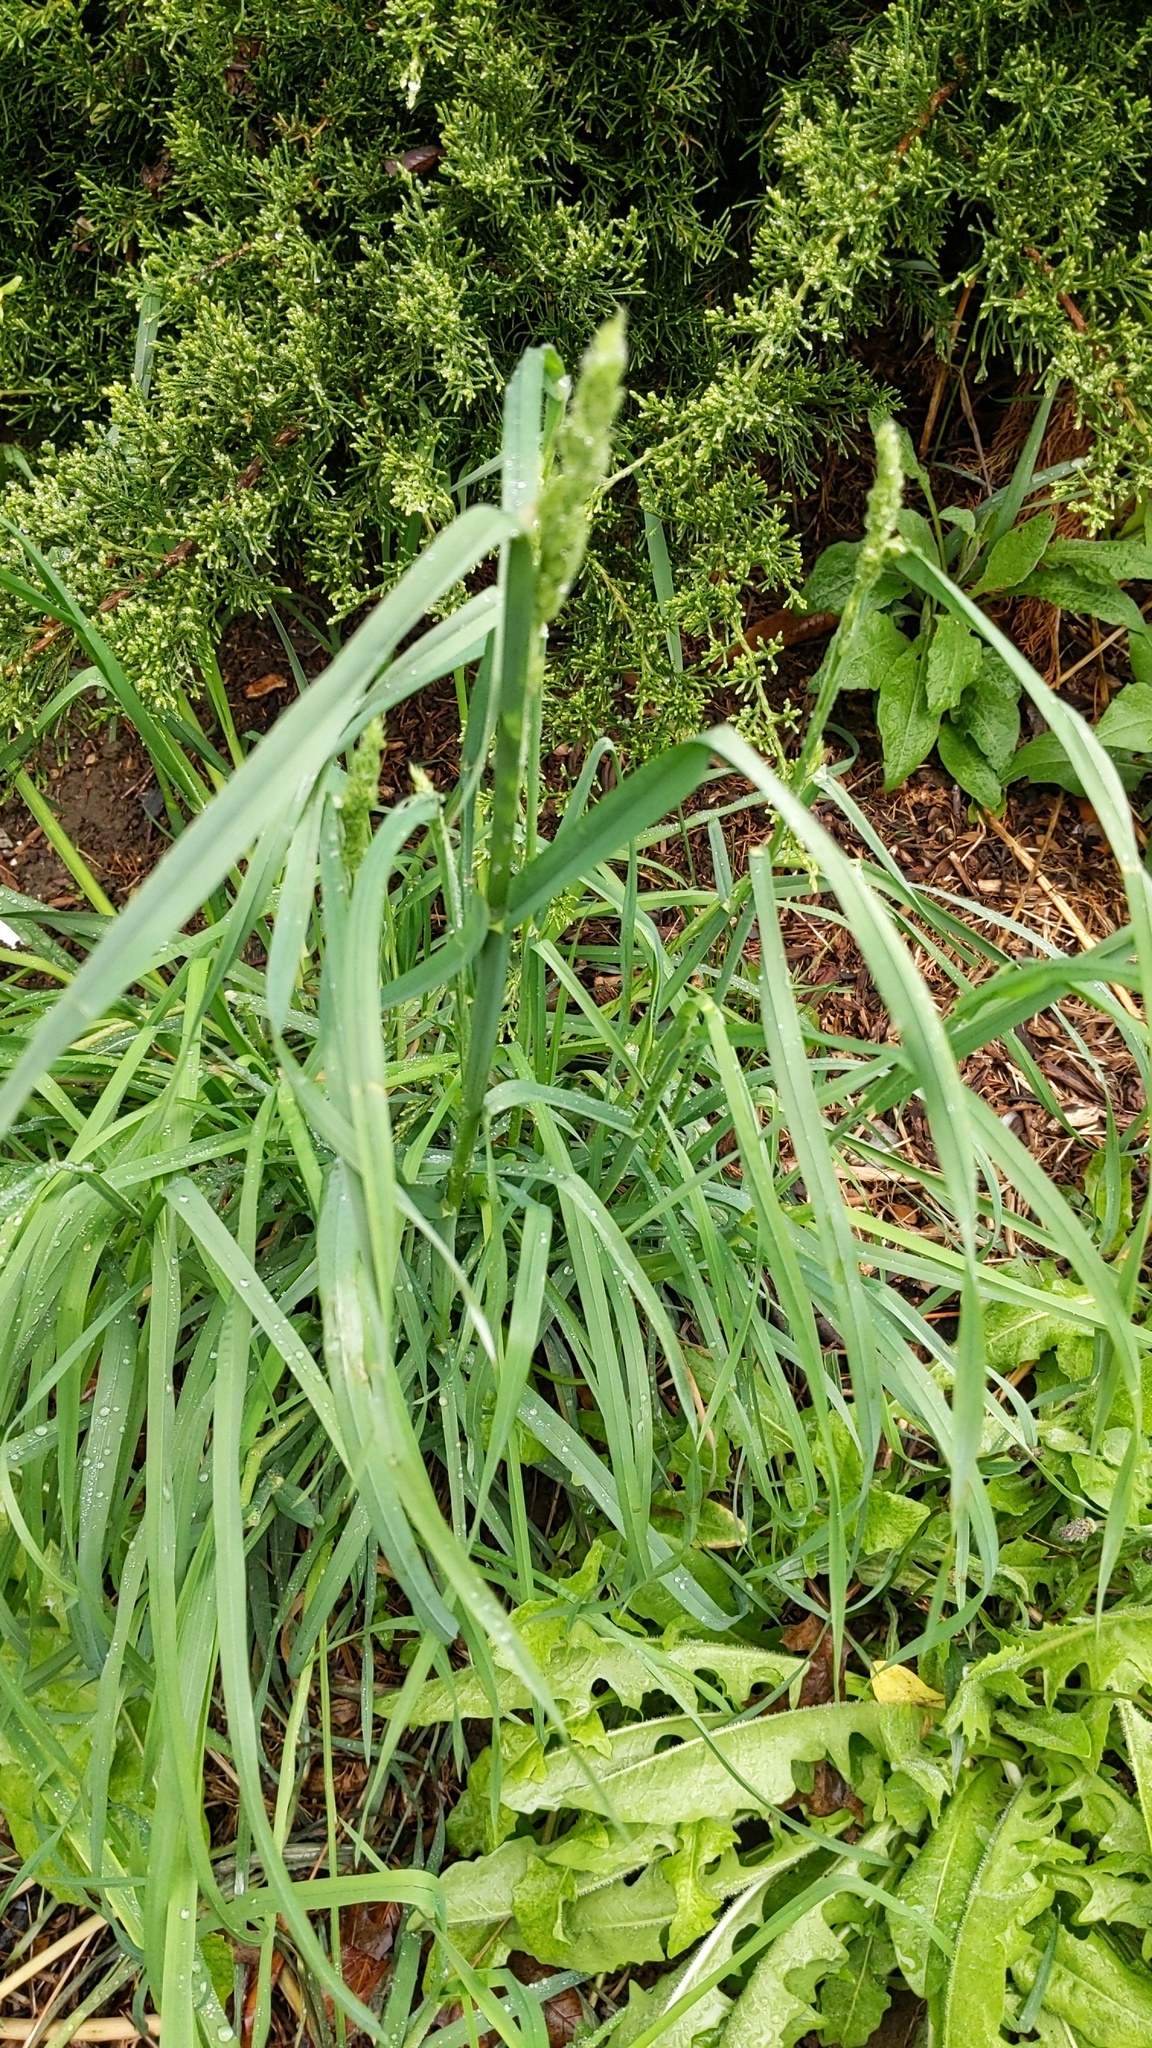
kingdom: Plantae
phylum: Tracheophyta
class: Liliopsida
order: Poales
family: Poaceae
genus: Dactylis
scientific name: Dactylis glomerata
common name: Orchardgrass
